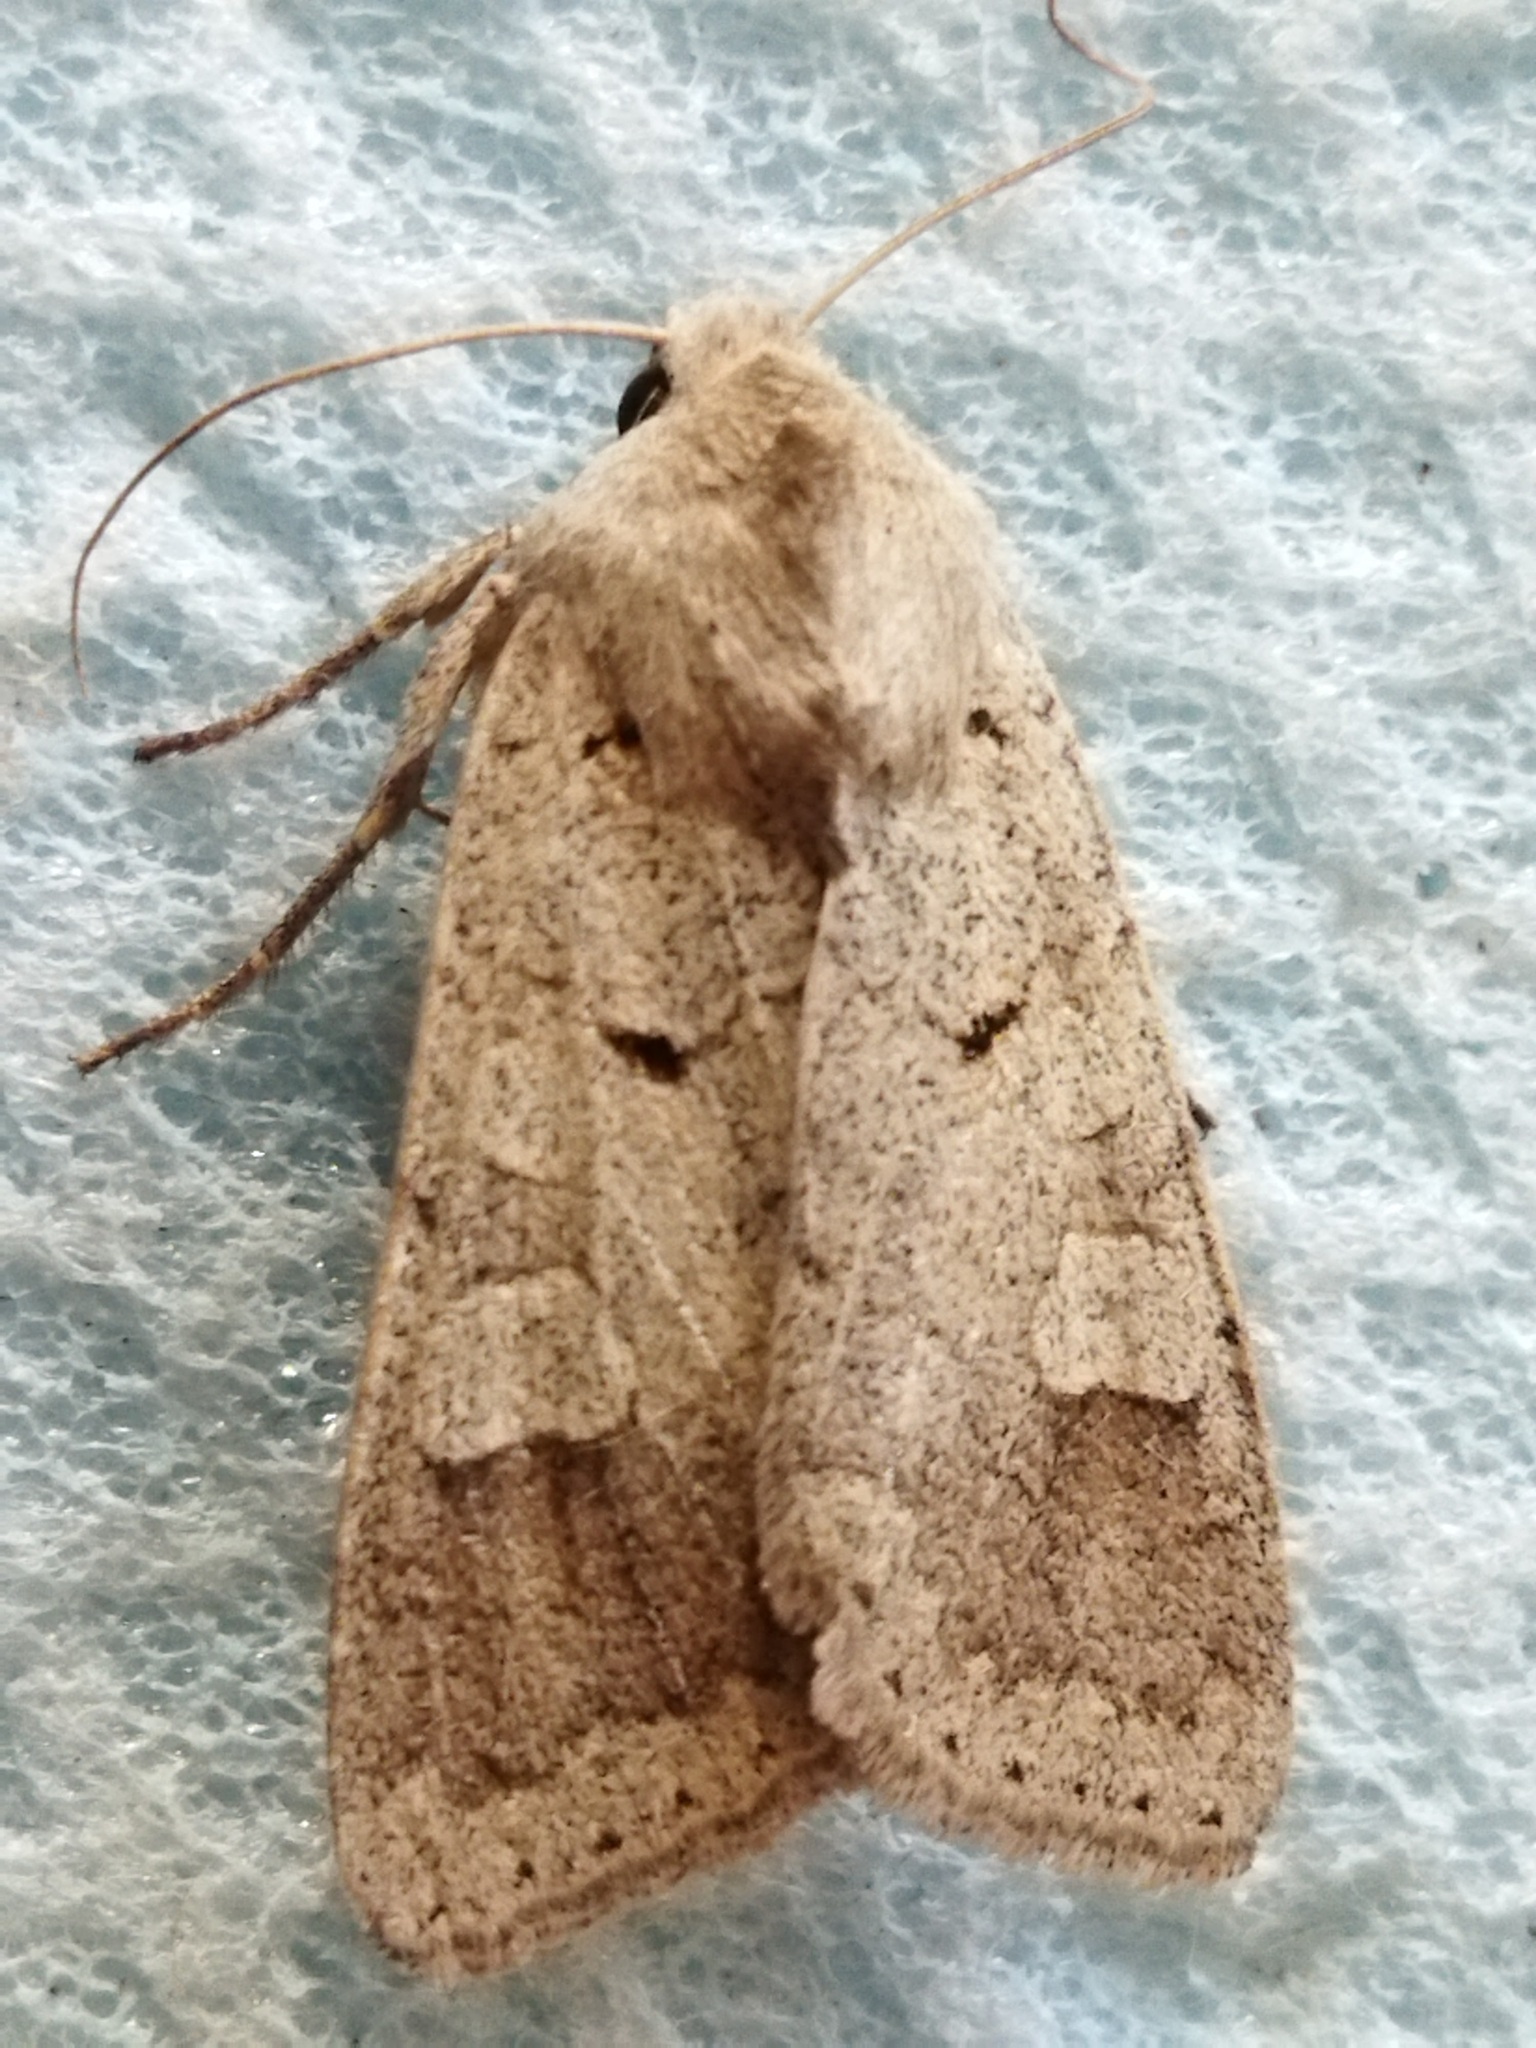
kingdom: Animalia
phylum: Arthropoda
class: Insecta
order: Lepidoptera
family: Noctuidae
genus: Ammoconia
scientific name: Ammoconia caecimacula
